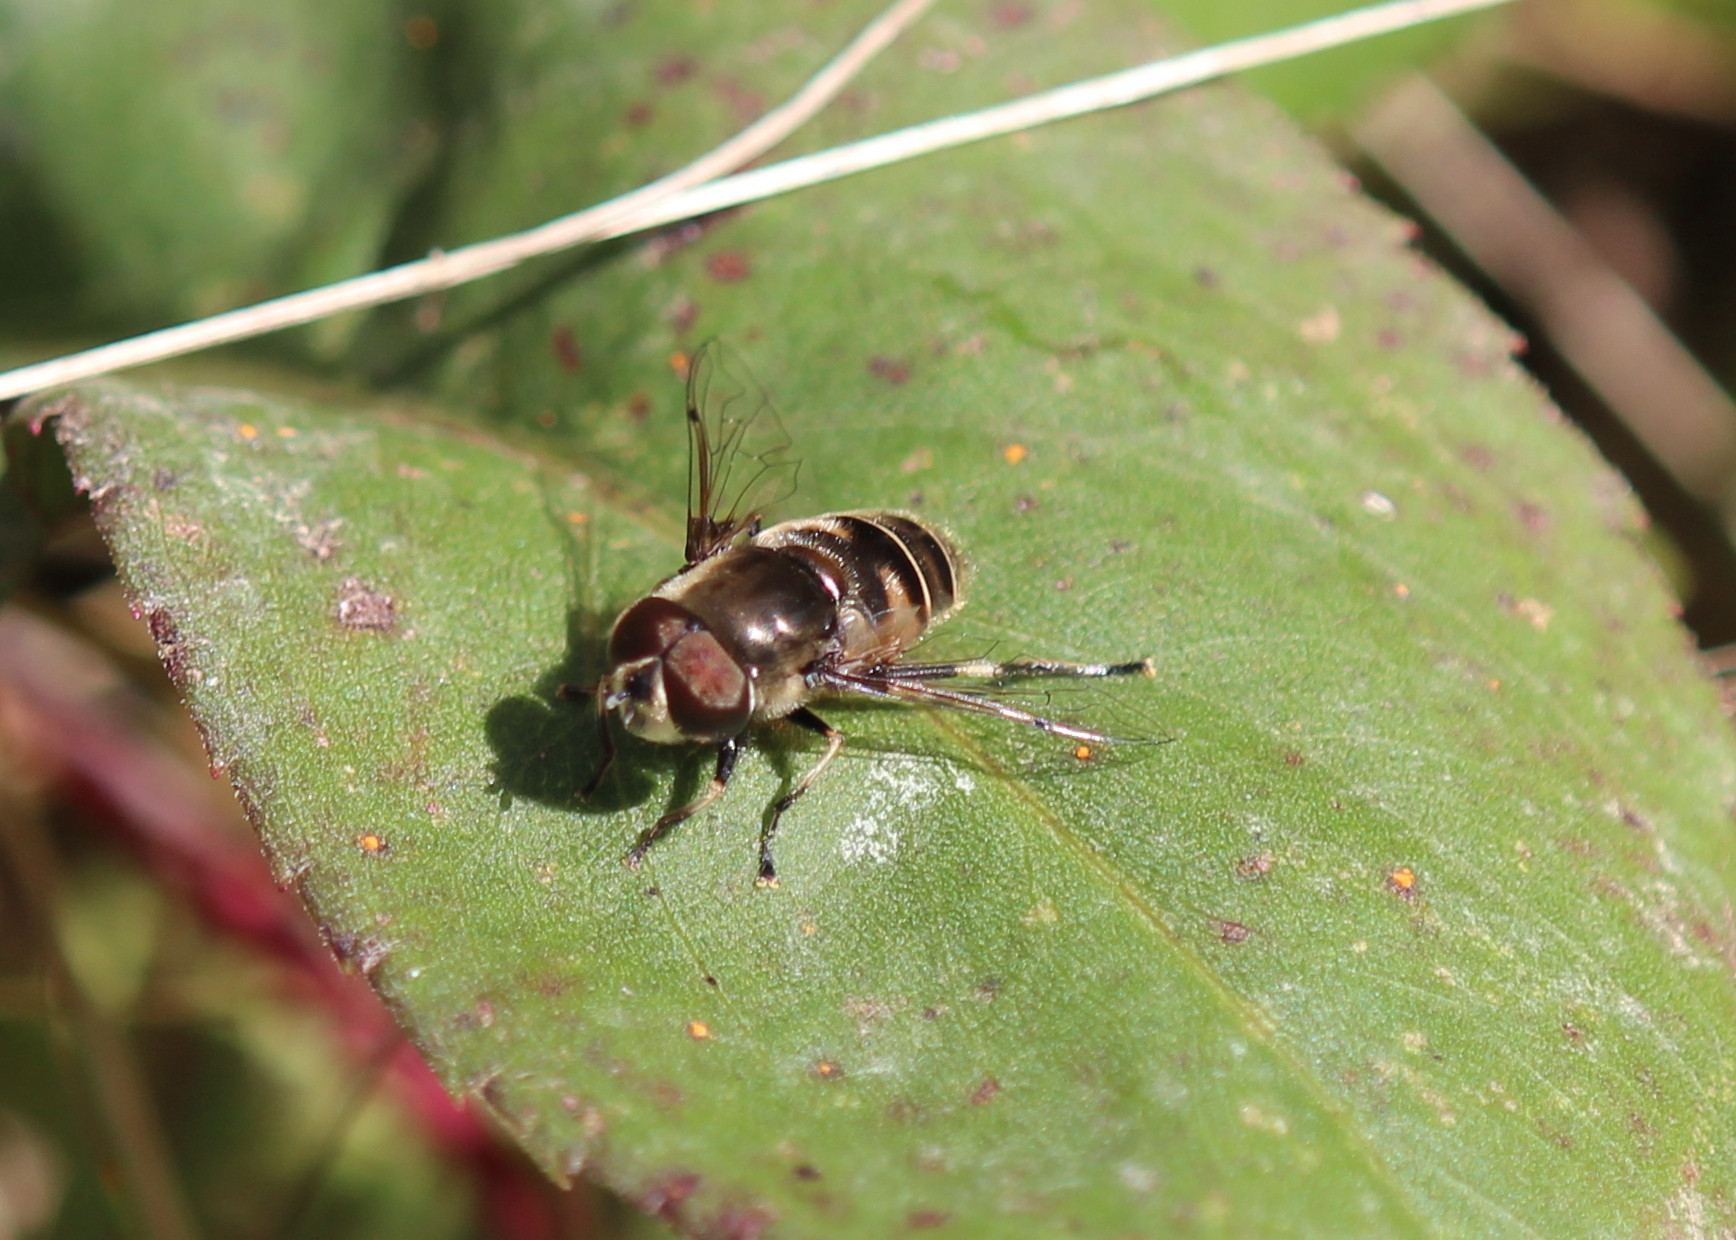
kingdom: Animalia
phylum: Arthropoda
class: Insecta
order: Diptera
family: Syrphidae
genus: Eristalis
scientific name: Eristalis dimidiata
